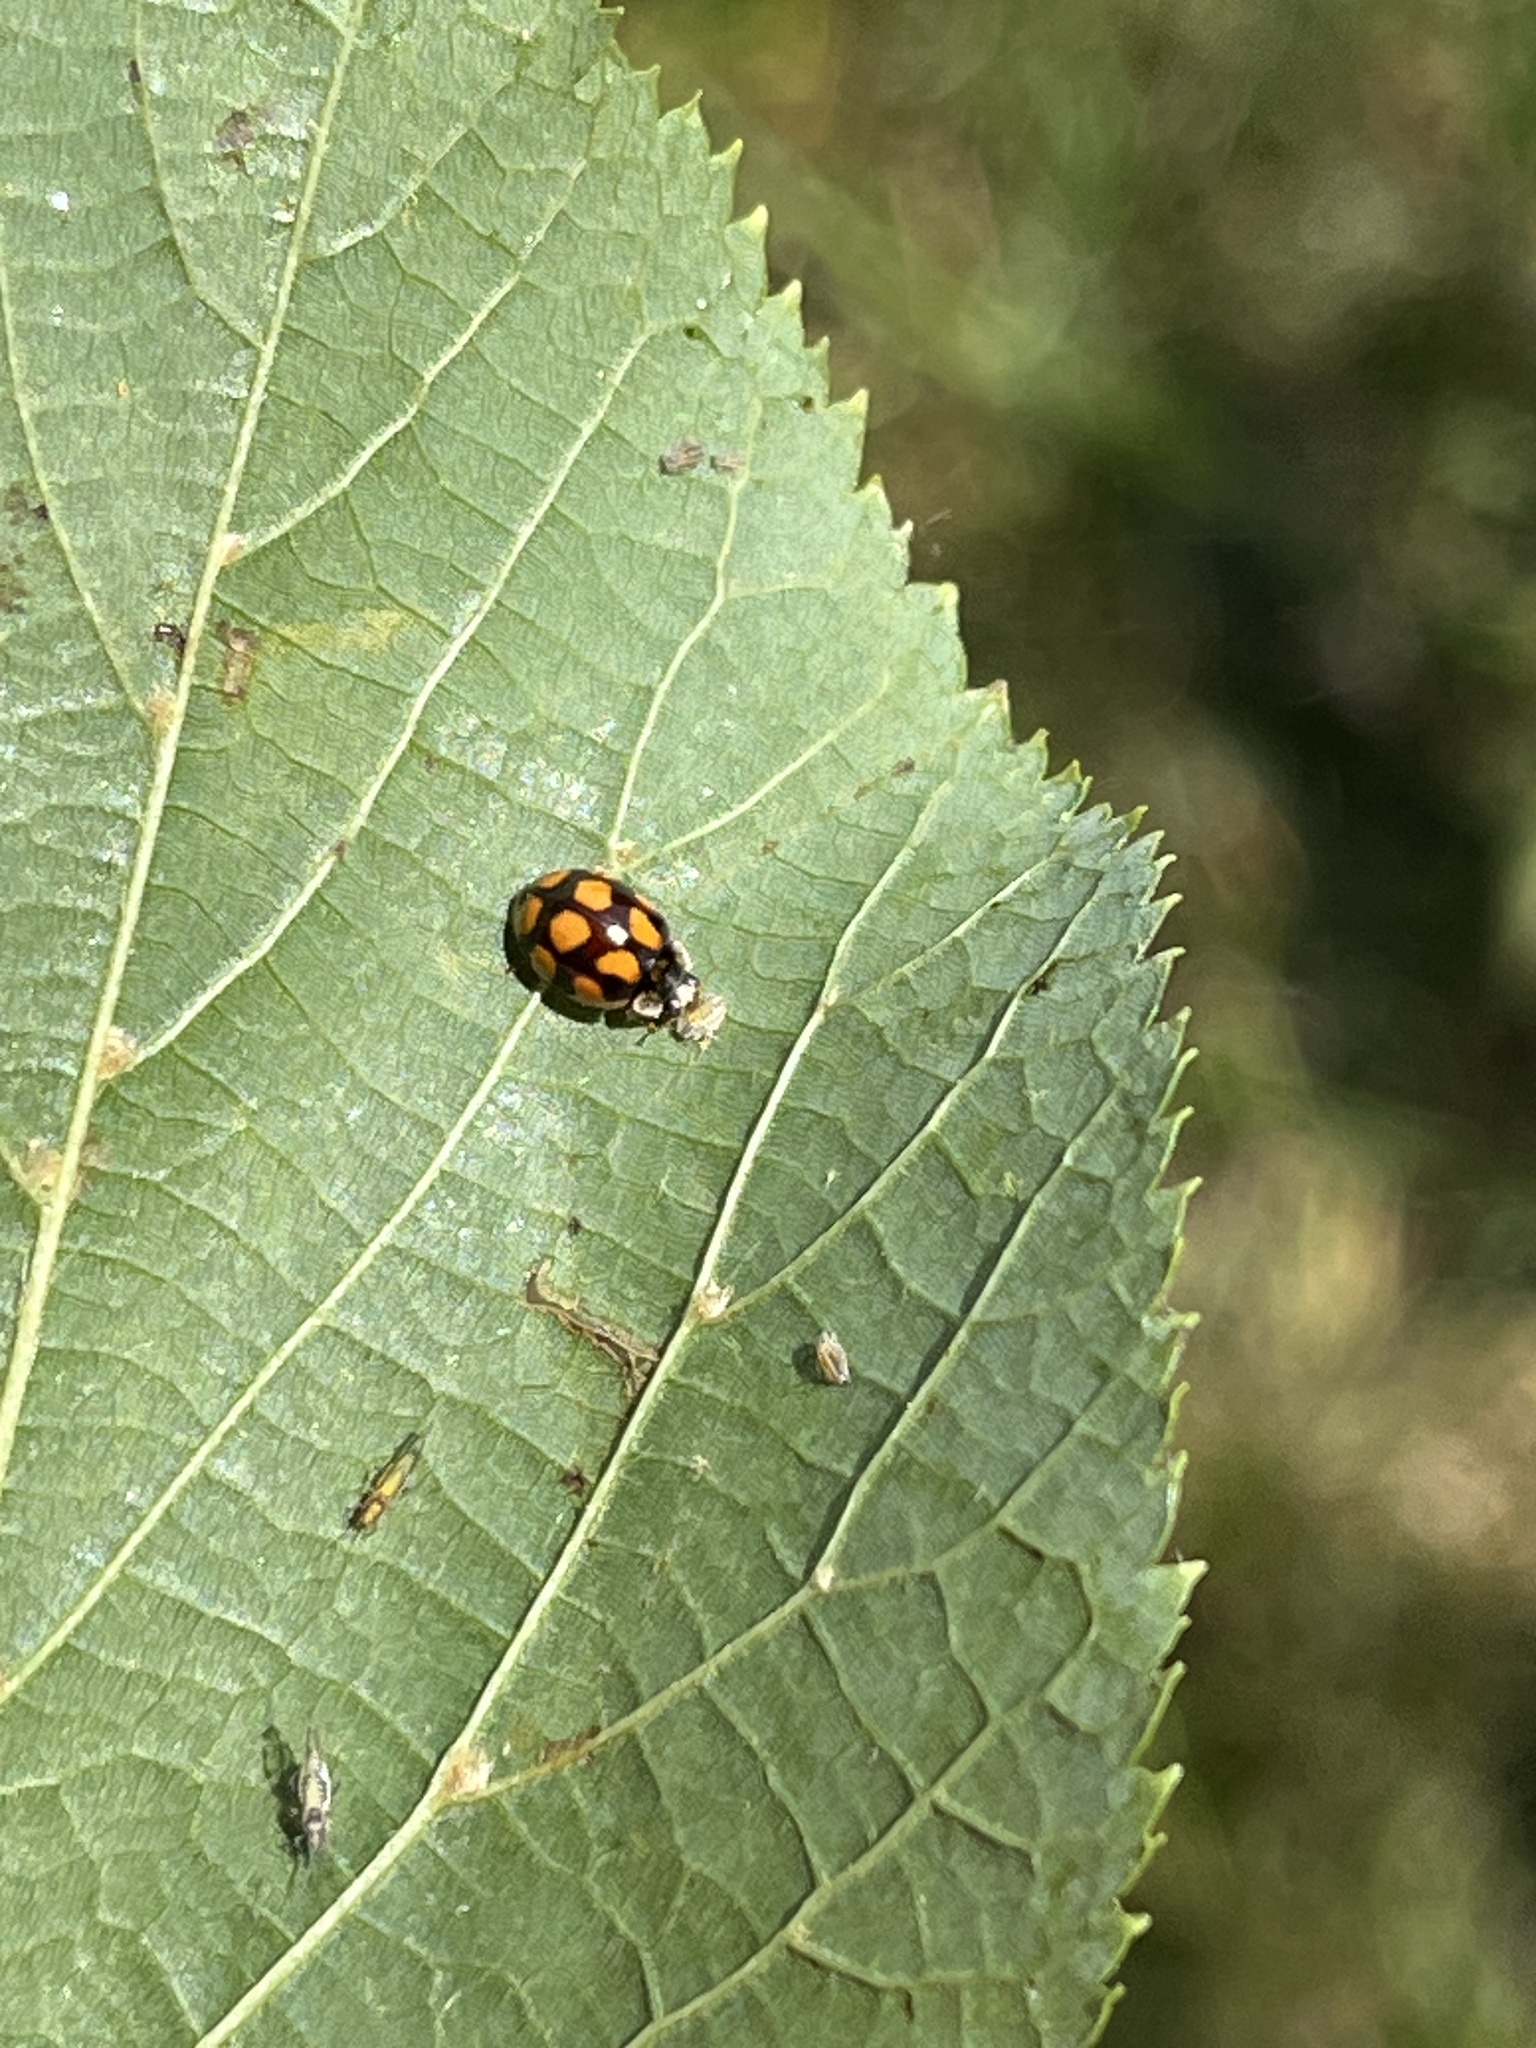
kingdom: Animalia
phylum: Arthropoda
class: Insecta
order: Coleoptera
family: Coccinellidae
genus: Adalia
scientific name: Adalia decempunctata
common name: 10-spot ladybird
